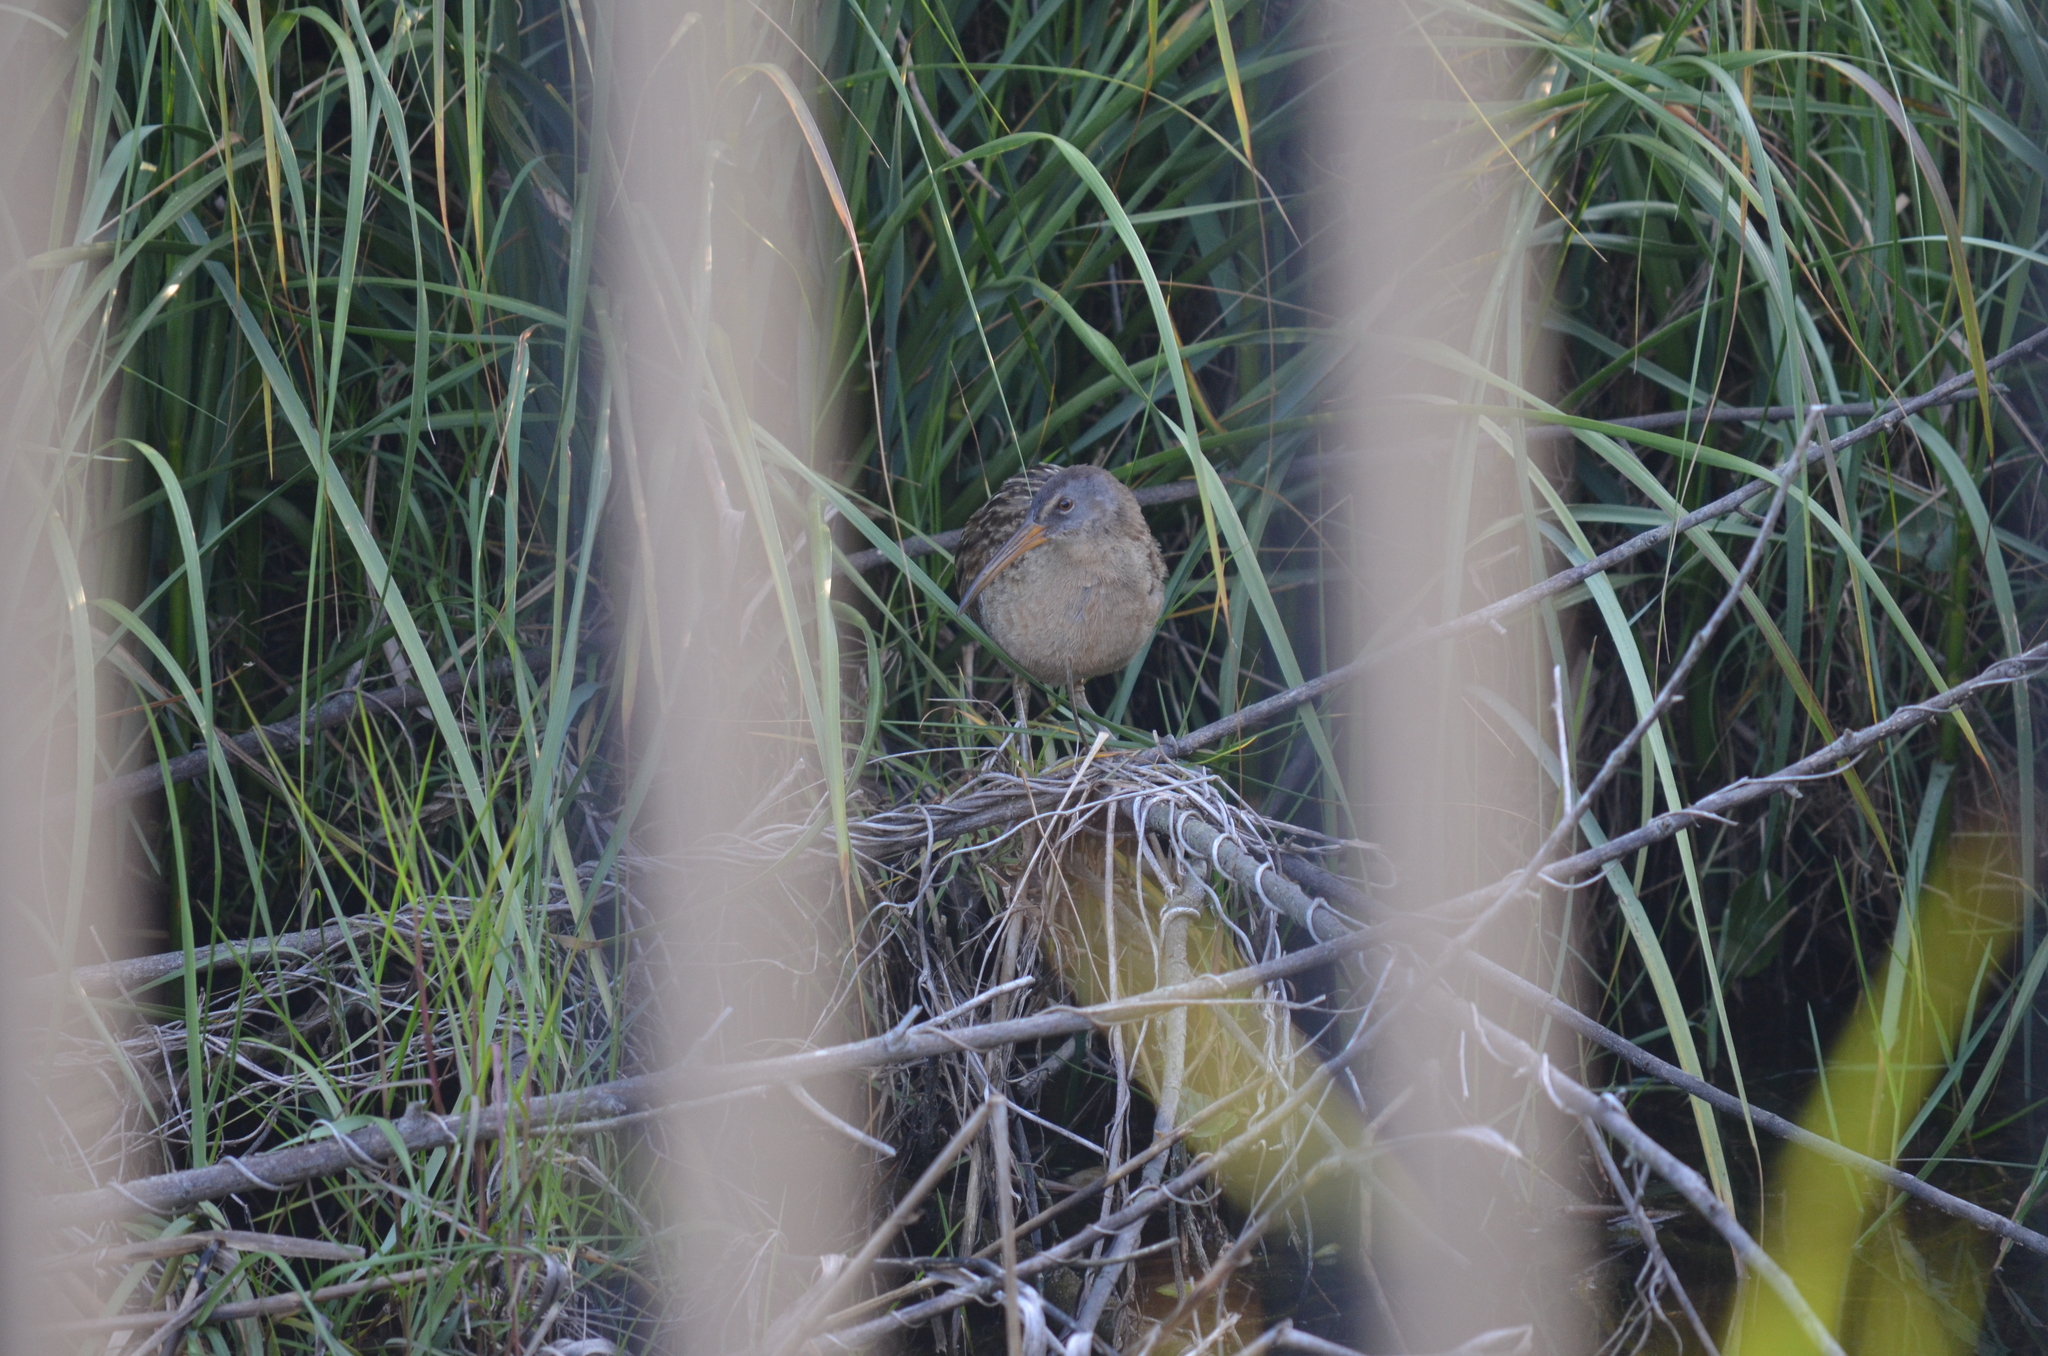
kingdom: Animalia
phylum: Chordata
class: Aves
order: Gruiformes
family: Rallidae
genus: Rallus
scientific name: Rallus crepitans
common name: Clapper rail
